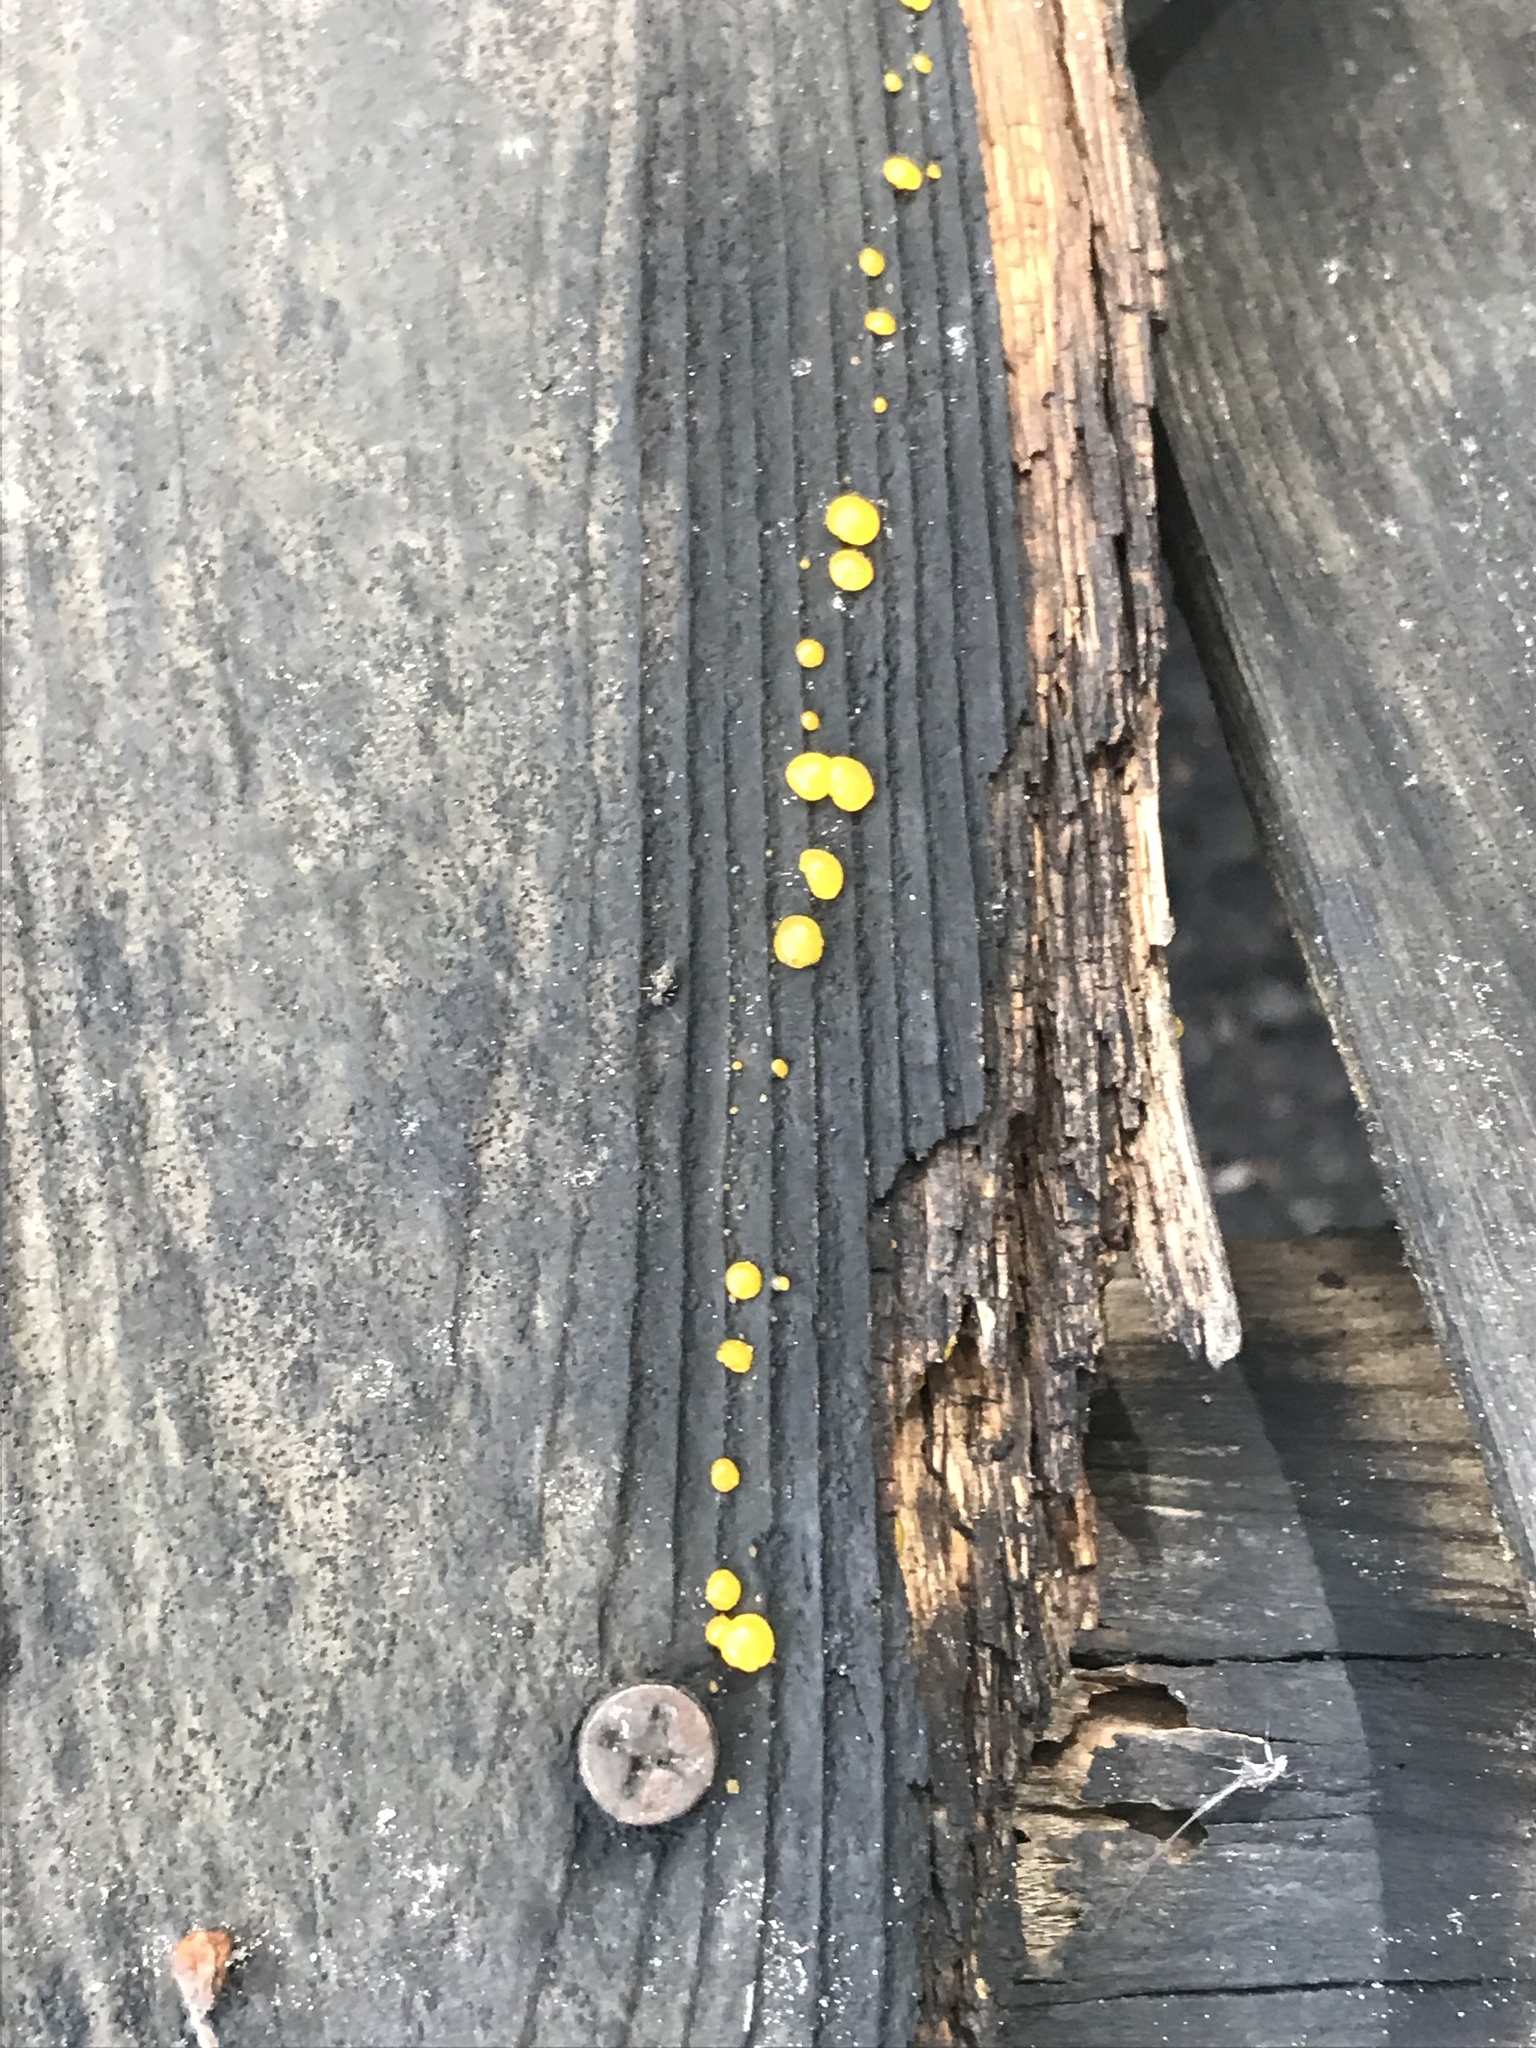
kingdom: Fungi
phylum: Ascomycota
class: Leotiomycetes
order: Helotiales
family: Pezizellaceae
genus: Calycina
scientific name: Calycina citrina
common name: Yellow fairy cups
